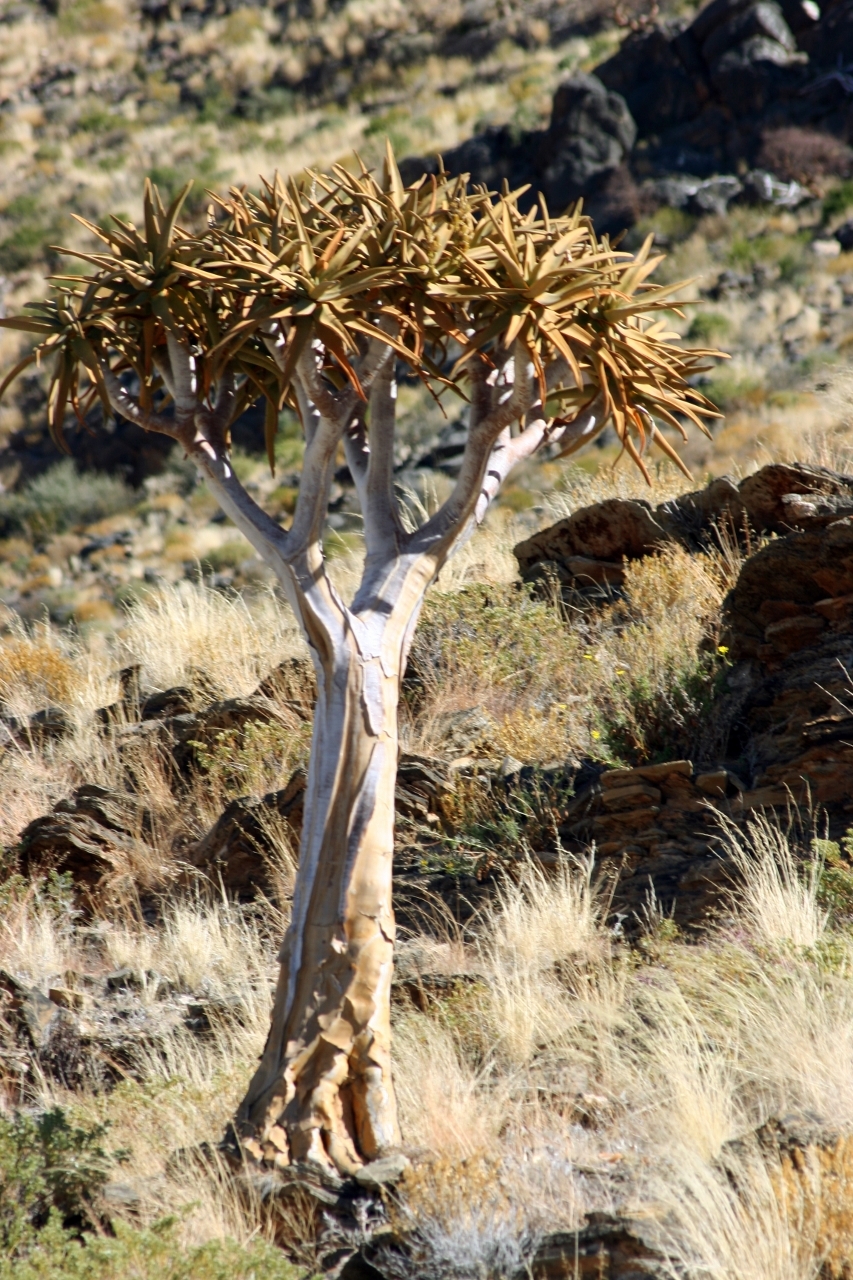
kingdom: Plantae
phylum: Tracheophyta
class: Liliopsida
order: Asparagales
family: Asphodelaceae
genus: Aloidendron
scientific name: Aloidendron dichotomum
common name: Quiver tree
